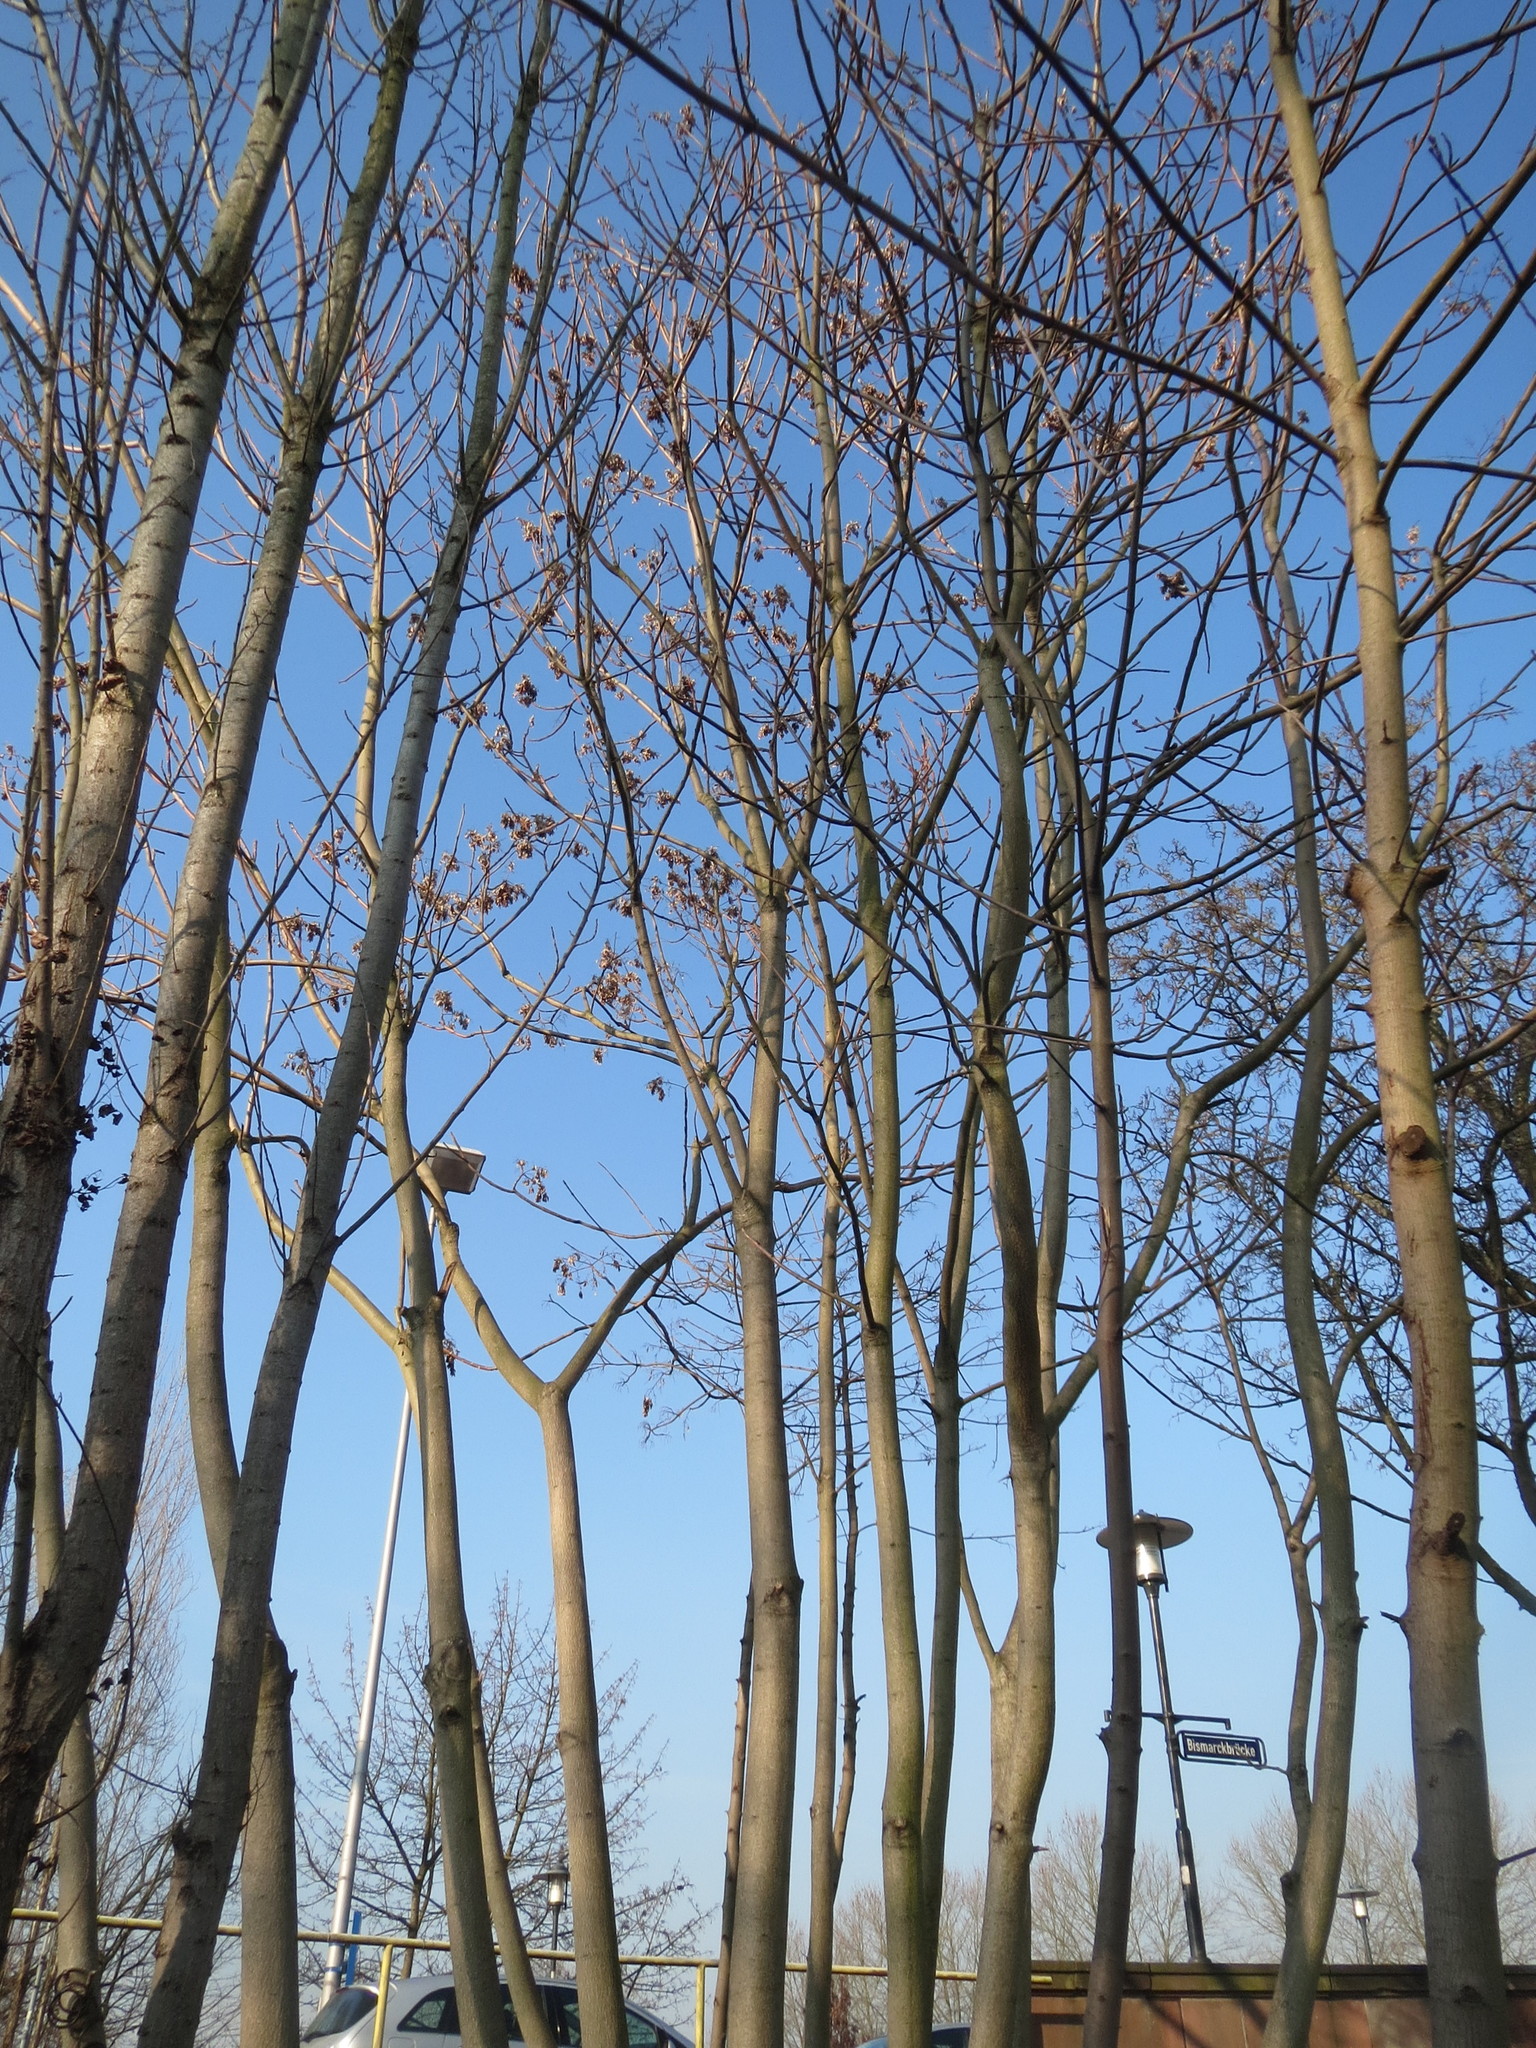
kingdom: Plantae
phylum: Tracheophyta
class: Magnoliopsida
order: Sapindales
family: Simaroubaceae
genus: Ailanthus
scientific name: Ailanthus altissima
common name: Tree-of-heaven
